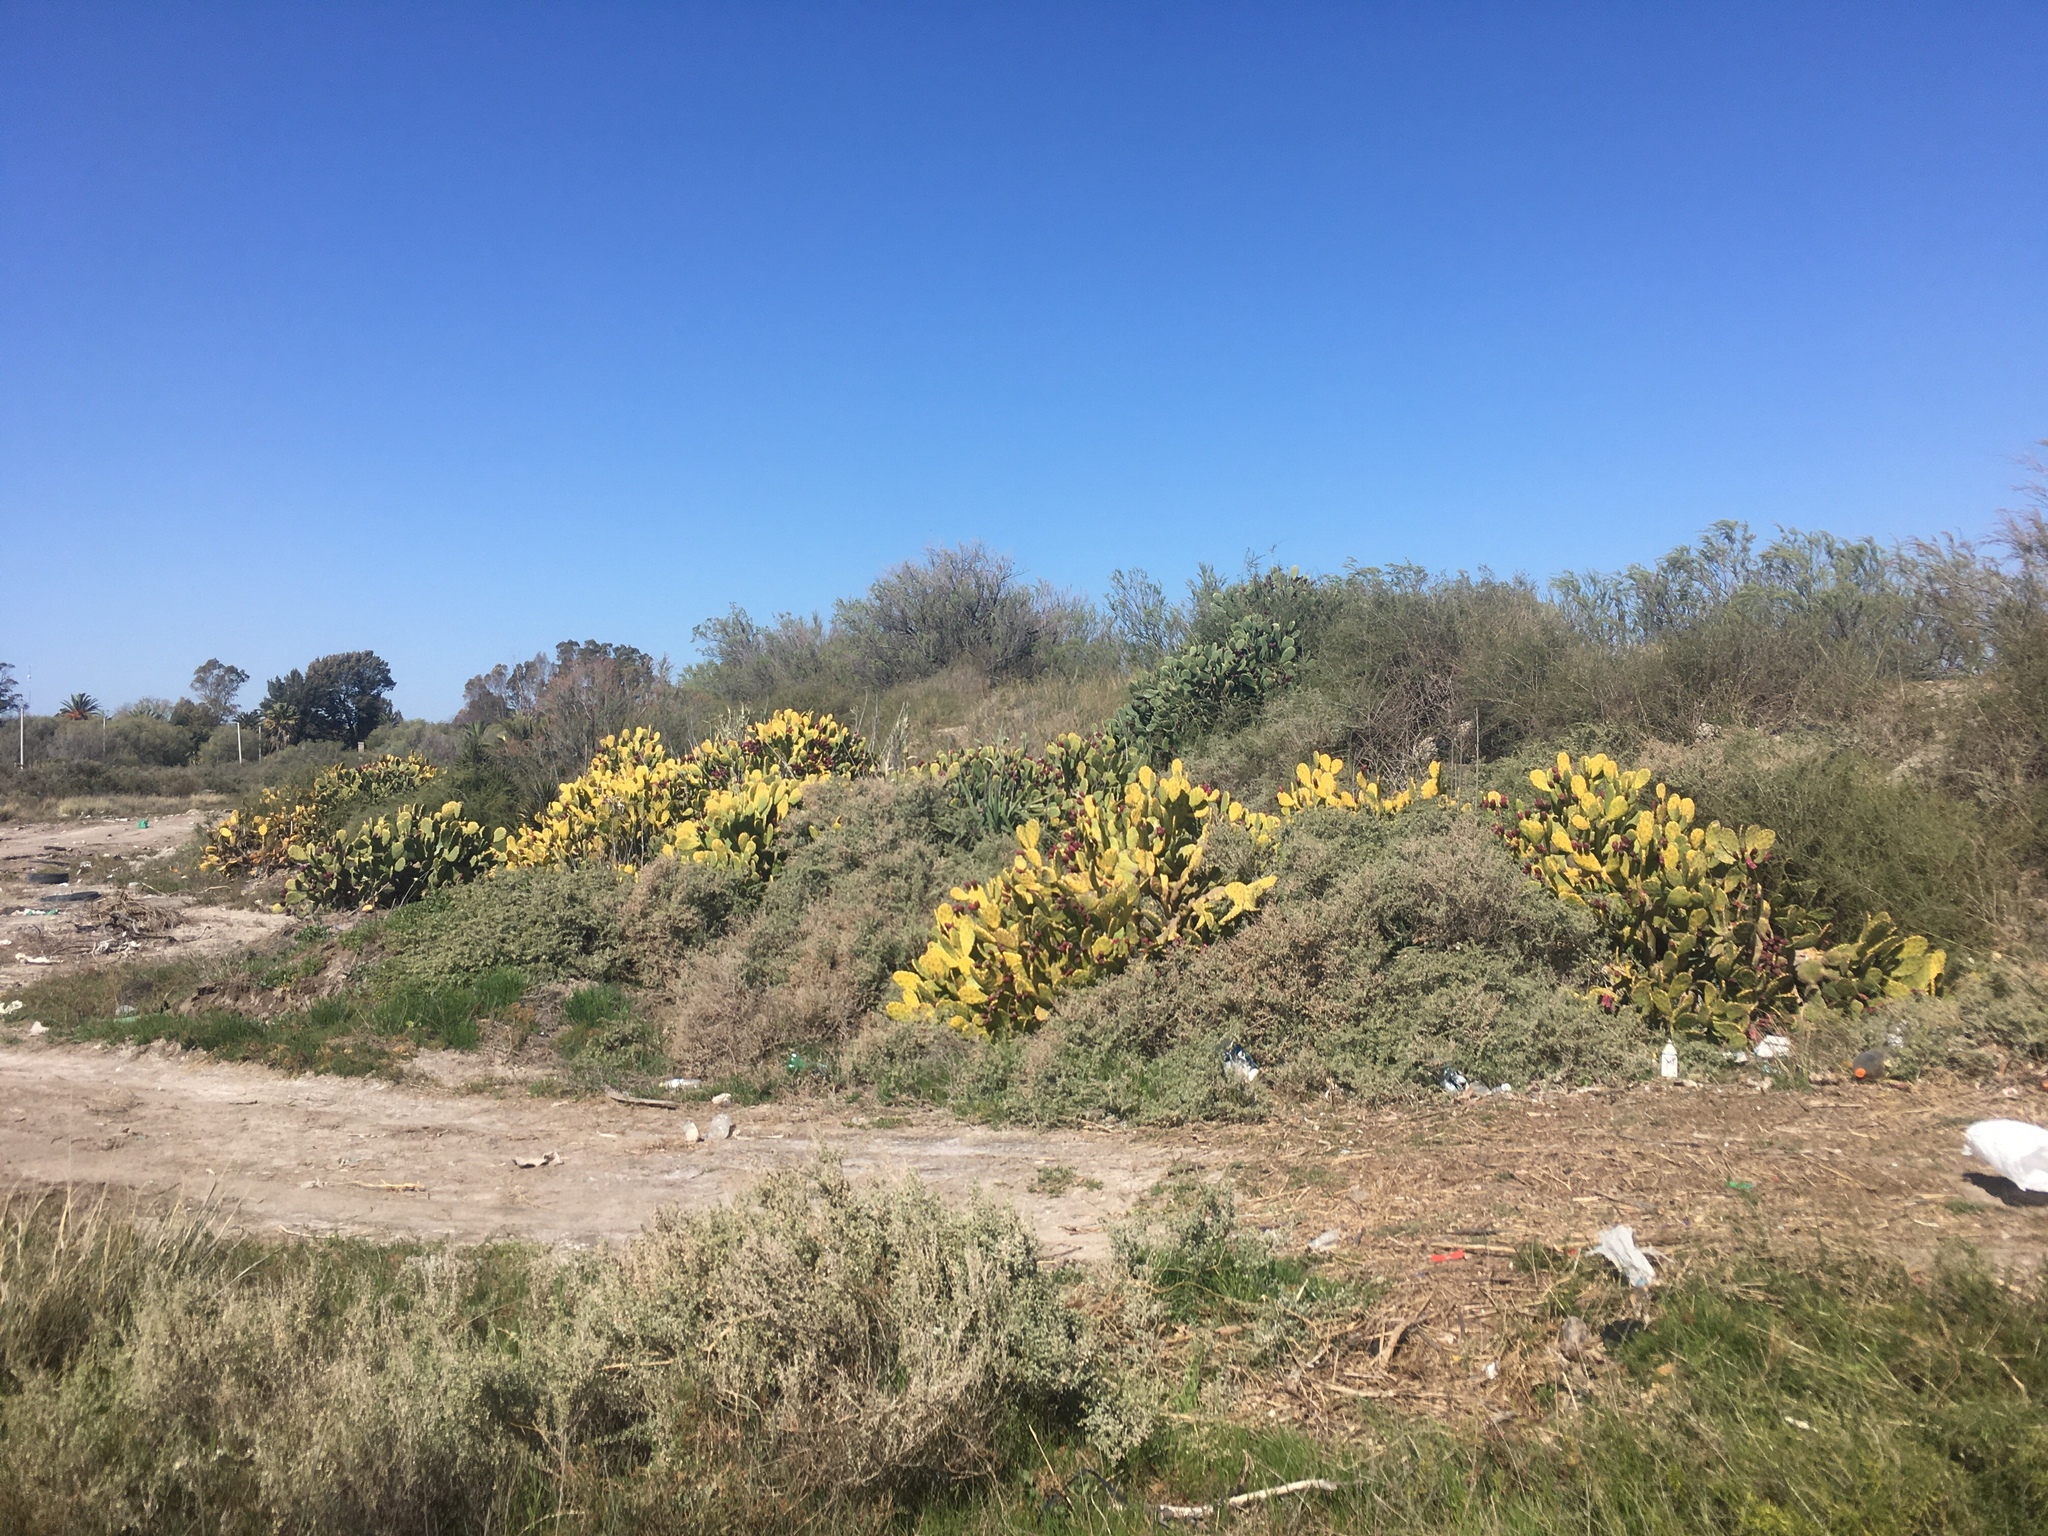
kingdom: Plantae
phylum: Tracheophyta
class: Magnoliopsida
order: Caryophyllales
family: Cactaceae
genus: Opuntia
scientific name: Opuntia megapotamica
